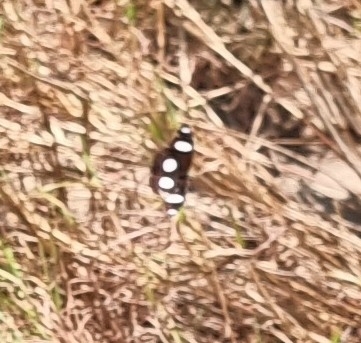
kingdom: Animalia
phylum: Arthropoda
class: Insecta
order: Lepidoptera
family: Nymphalidae
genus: Hypolimnas
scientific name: Hypolimnas misippus
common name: False plain tiger
